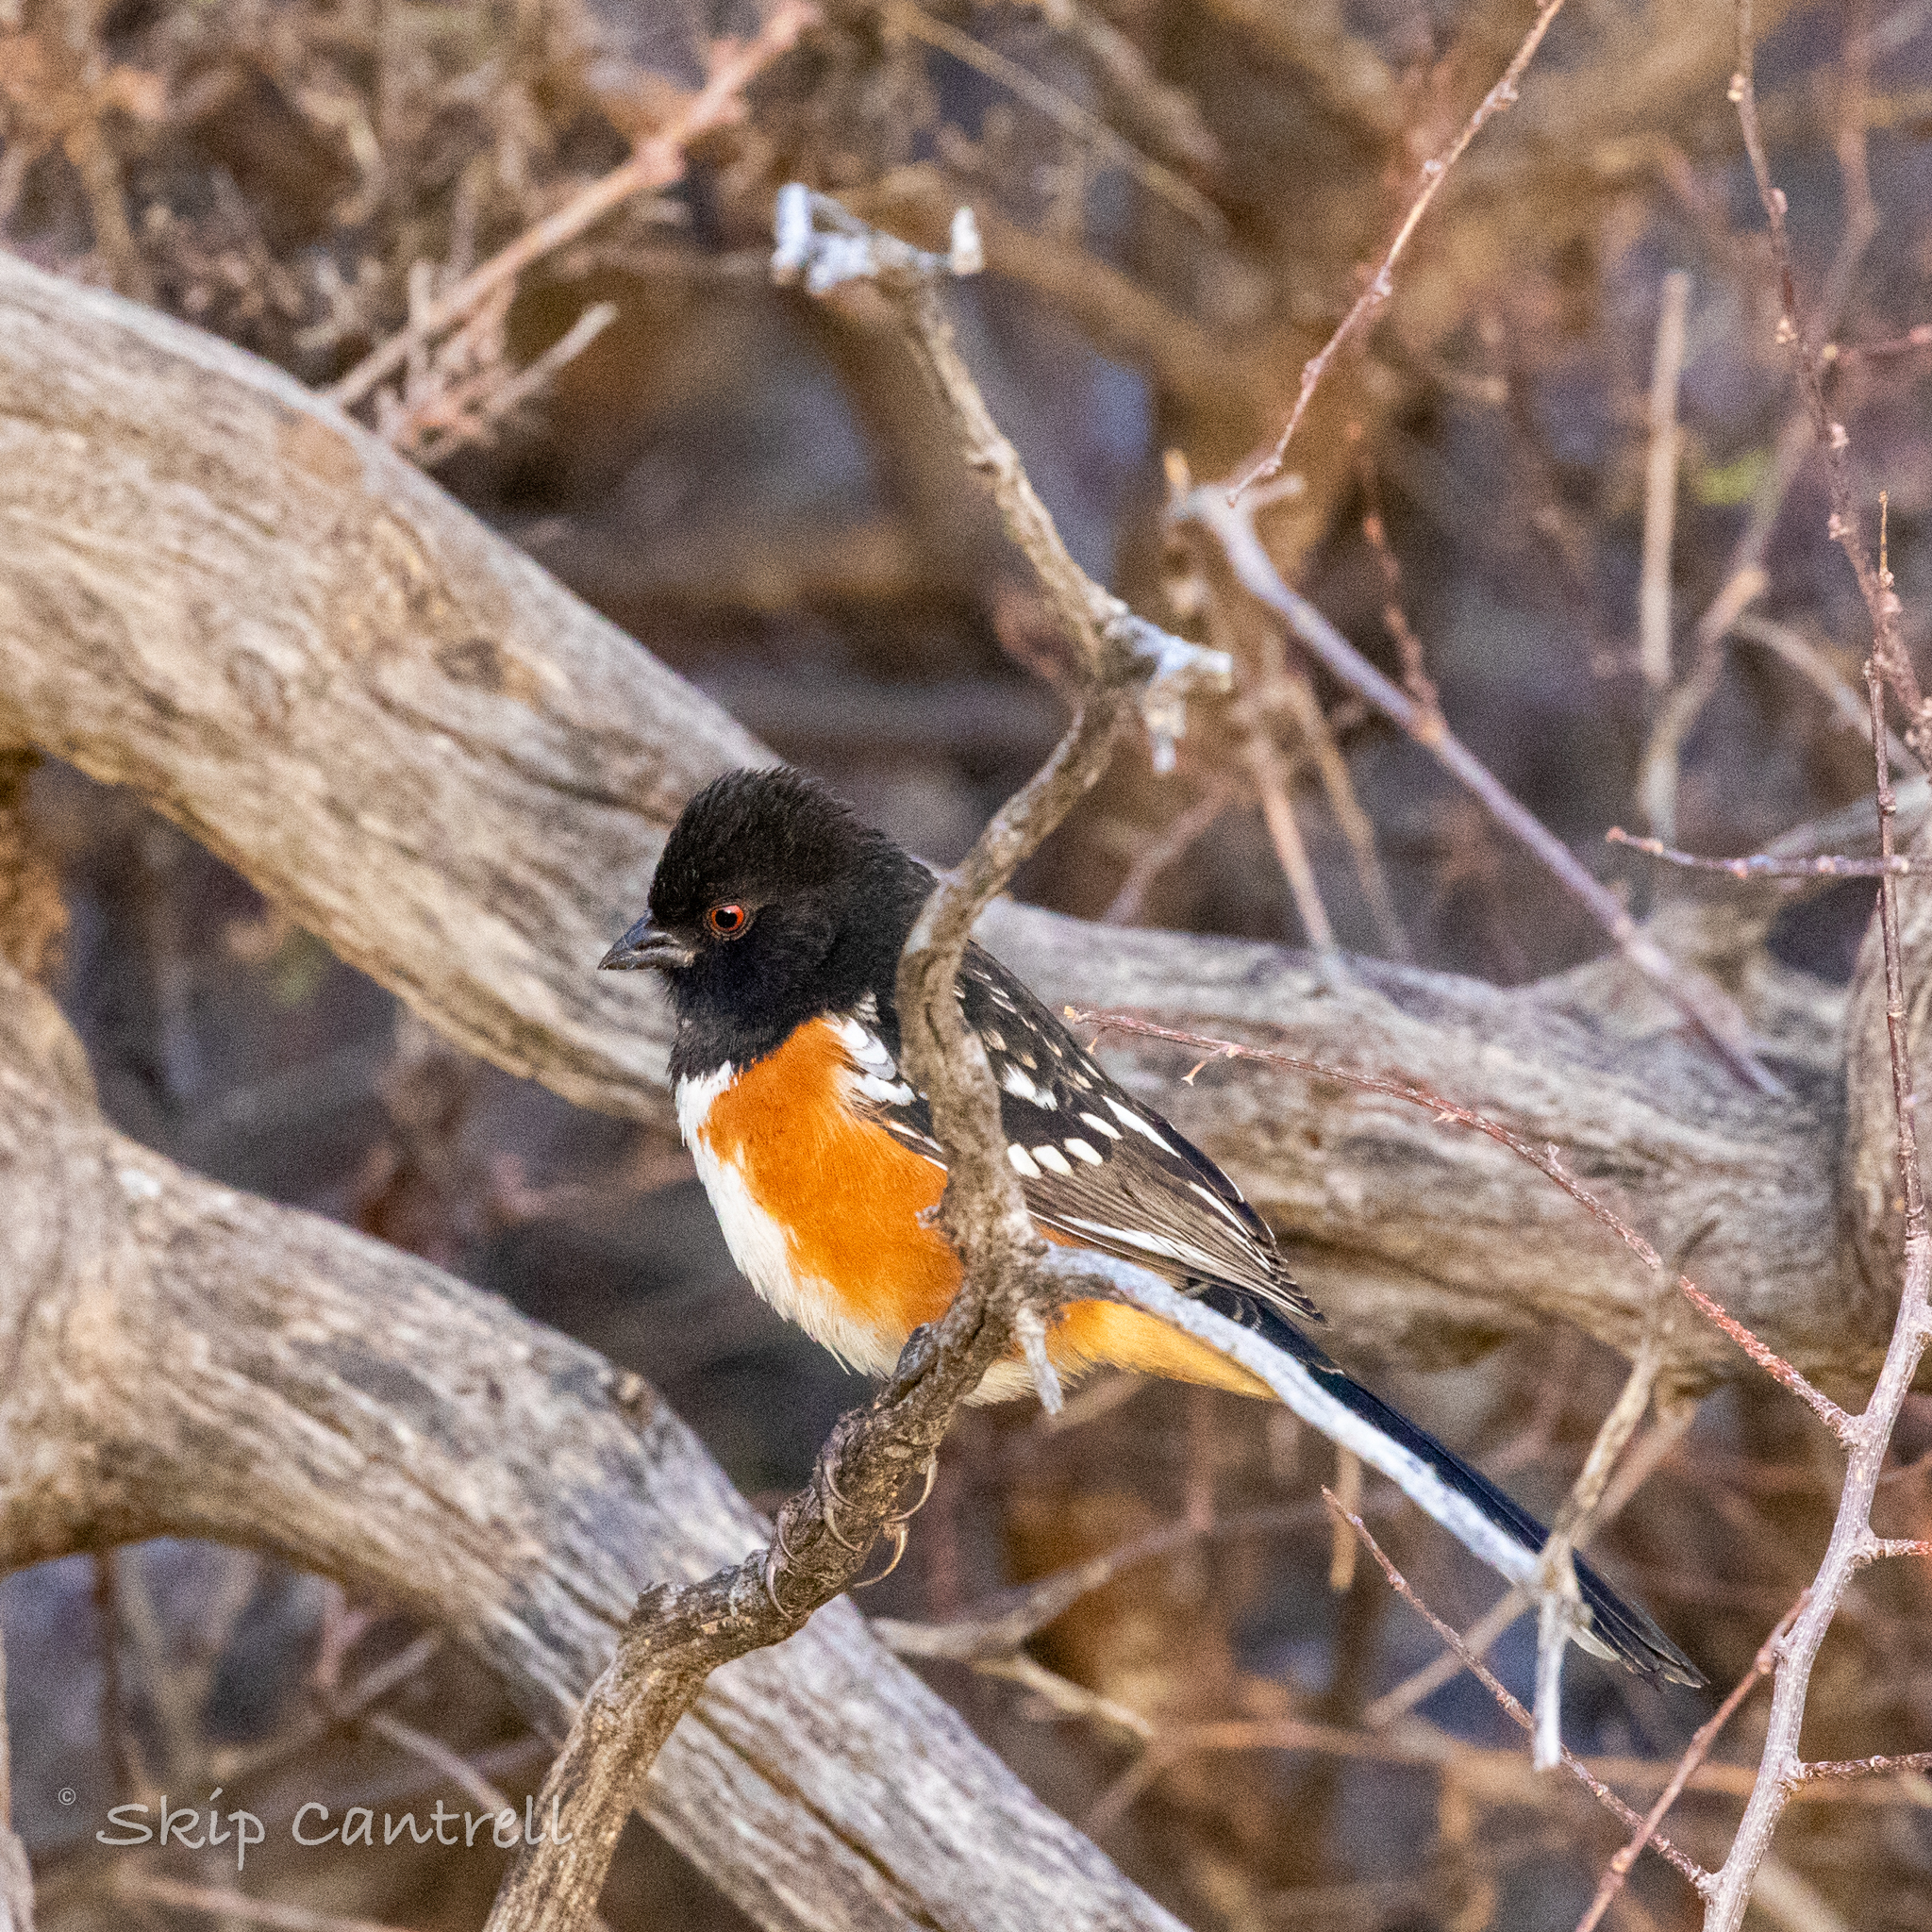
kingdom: Animalia
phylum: Chordata
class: Aves
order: Passeriformes
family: Passerellidae
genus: Pipilo
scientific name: Pipilo maculatus
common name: Spotted towhee
